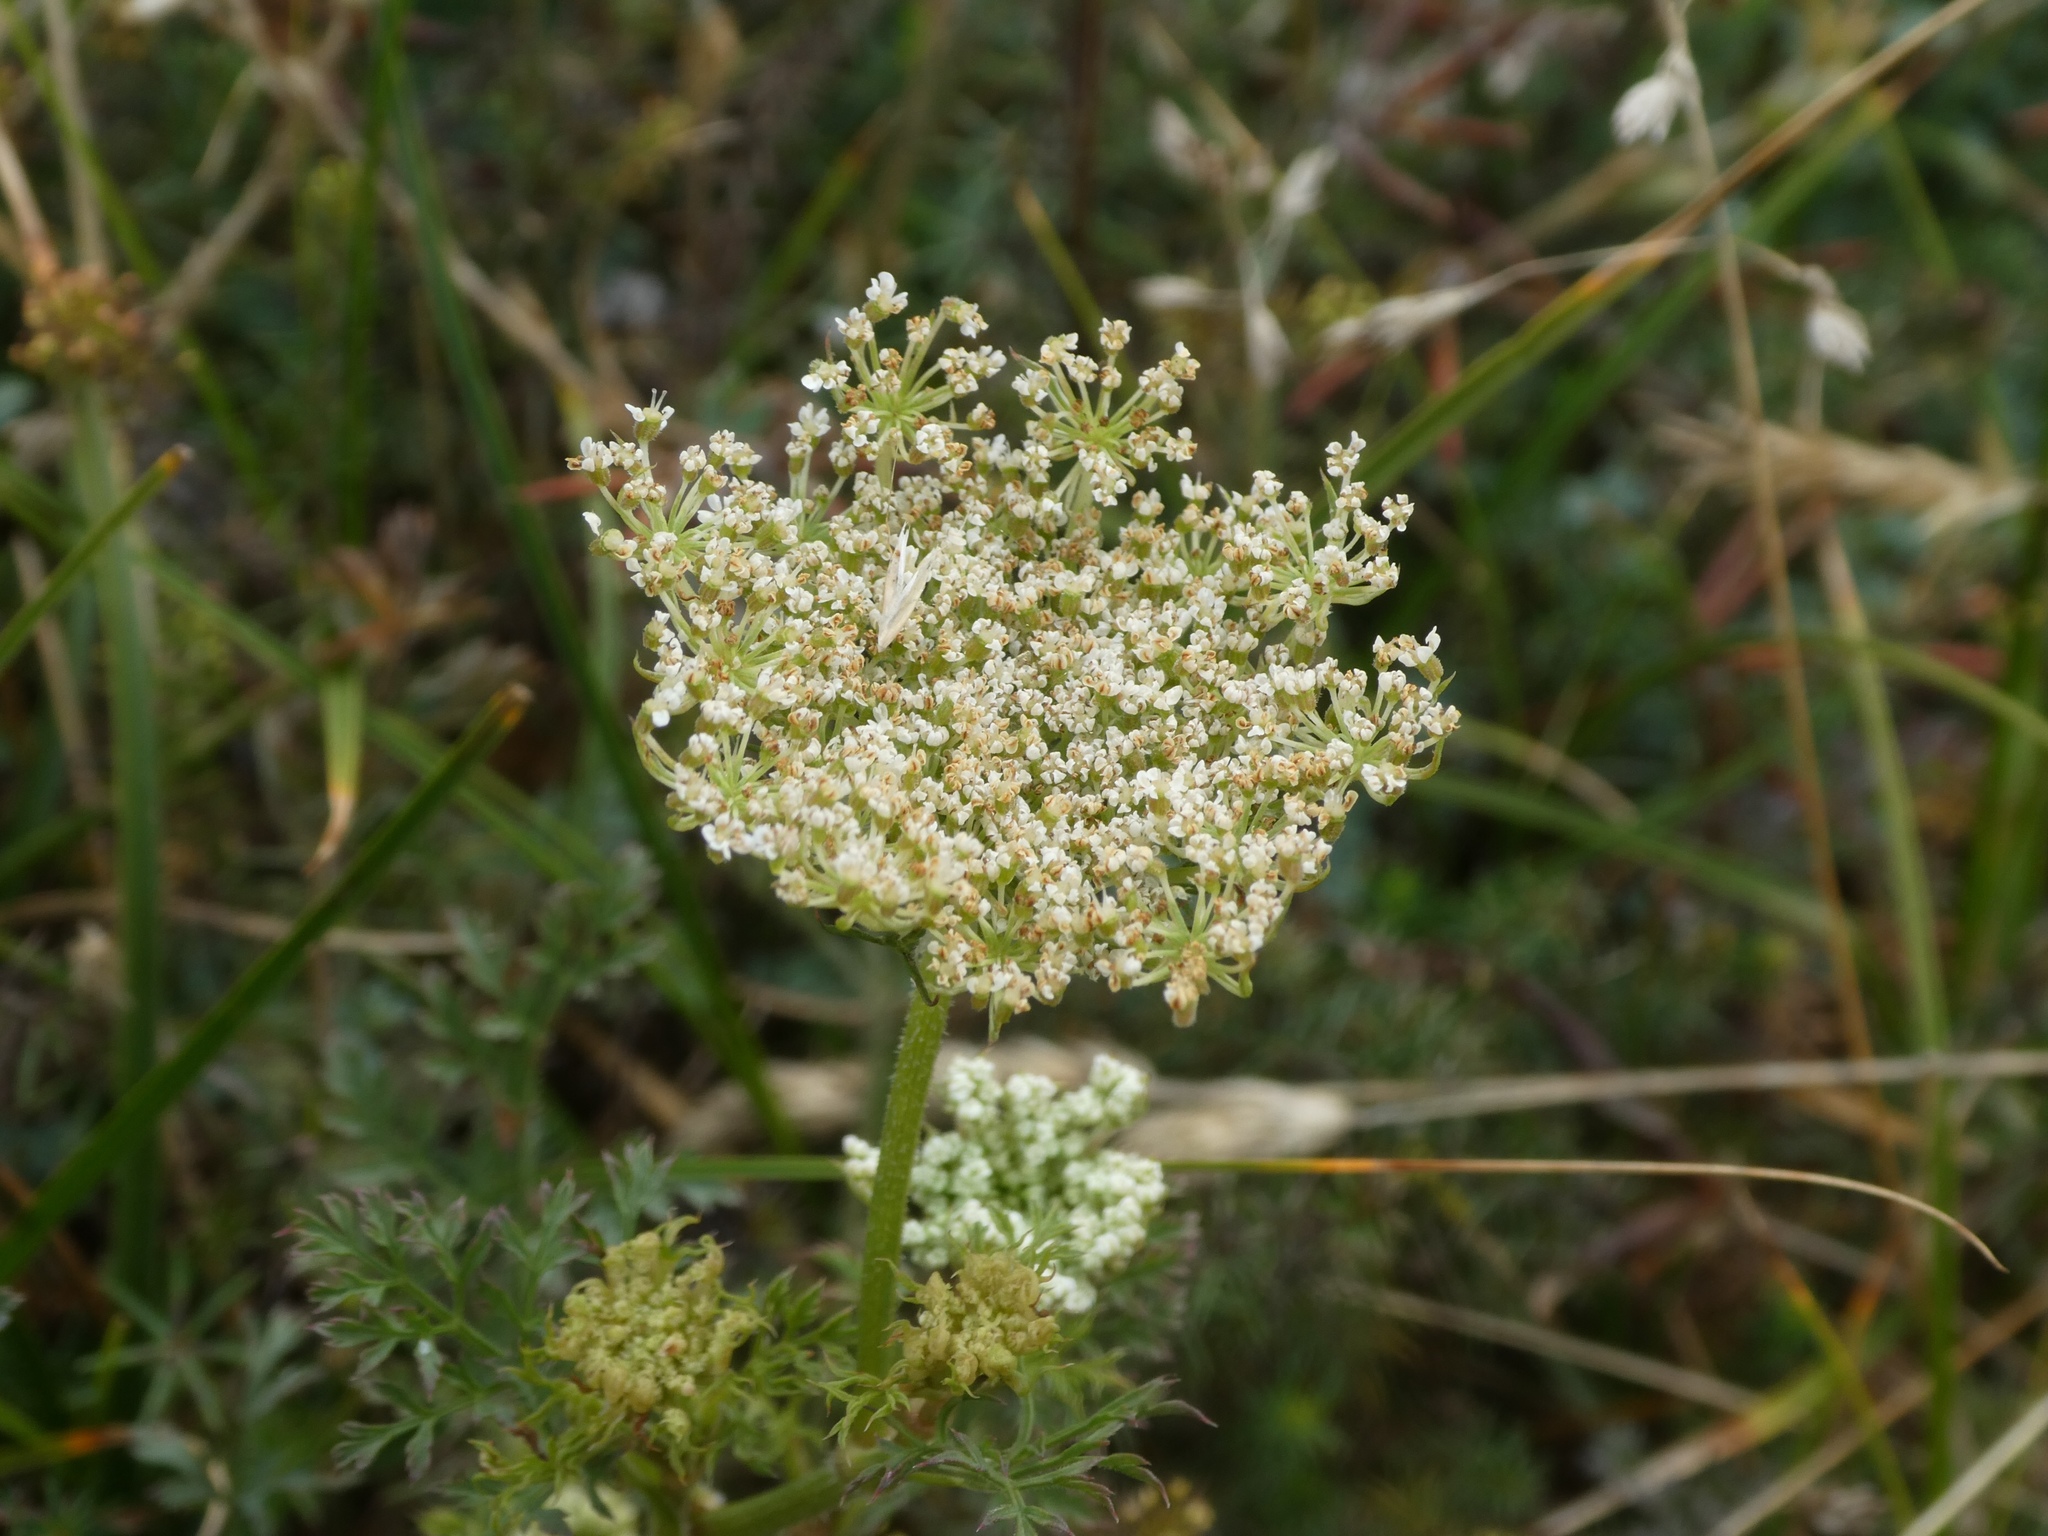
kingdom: Plantae
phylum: Tracheophyta
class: Magnoliopsida
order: Apiales
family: Apiaceae
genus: Daucus
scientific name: Daucus carota
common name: Wild carrot
